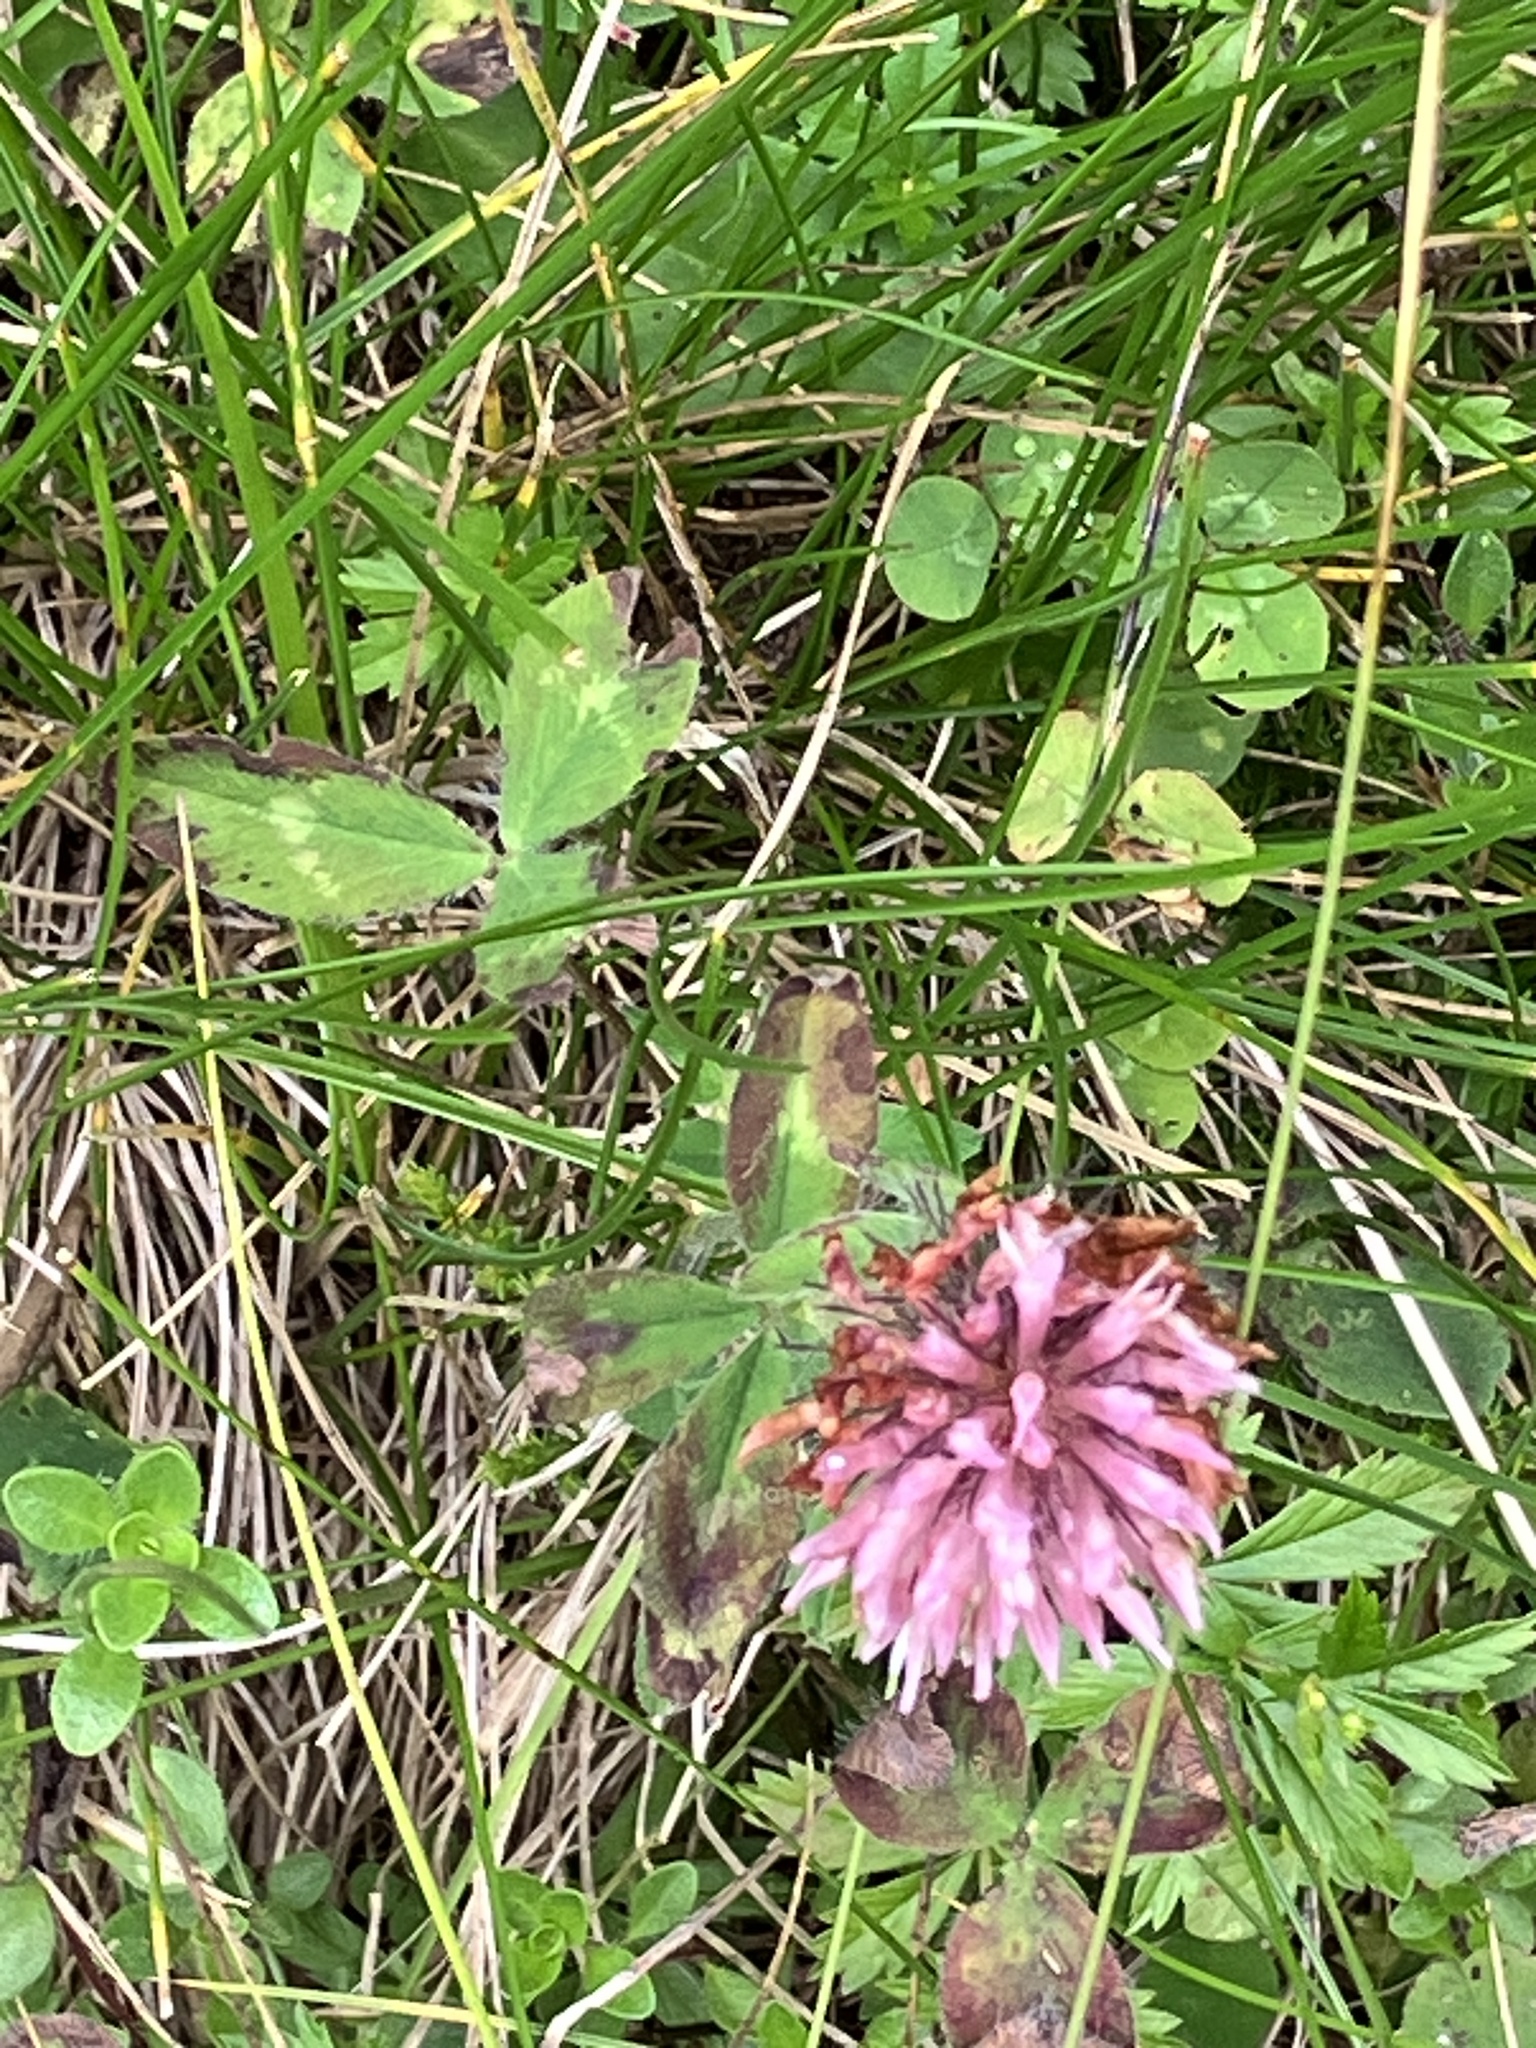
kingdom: Plantae
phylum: Tracheophyta
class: Magnoliopsida
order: Fabales
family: Fabaceae
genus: Trifolium
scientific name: Trifolium pratense
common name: Red clover
